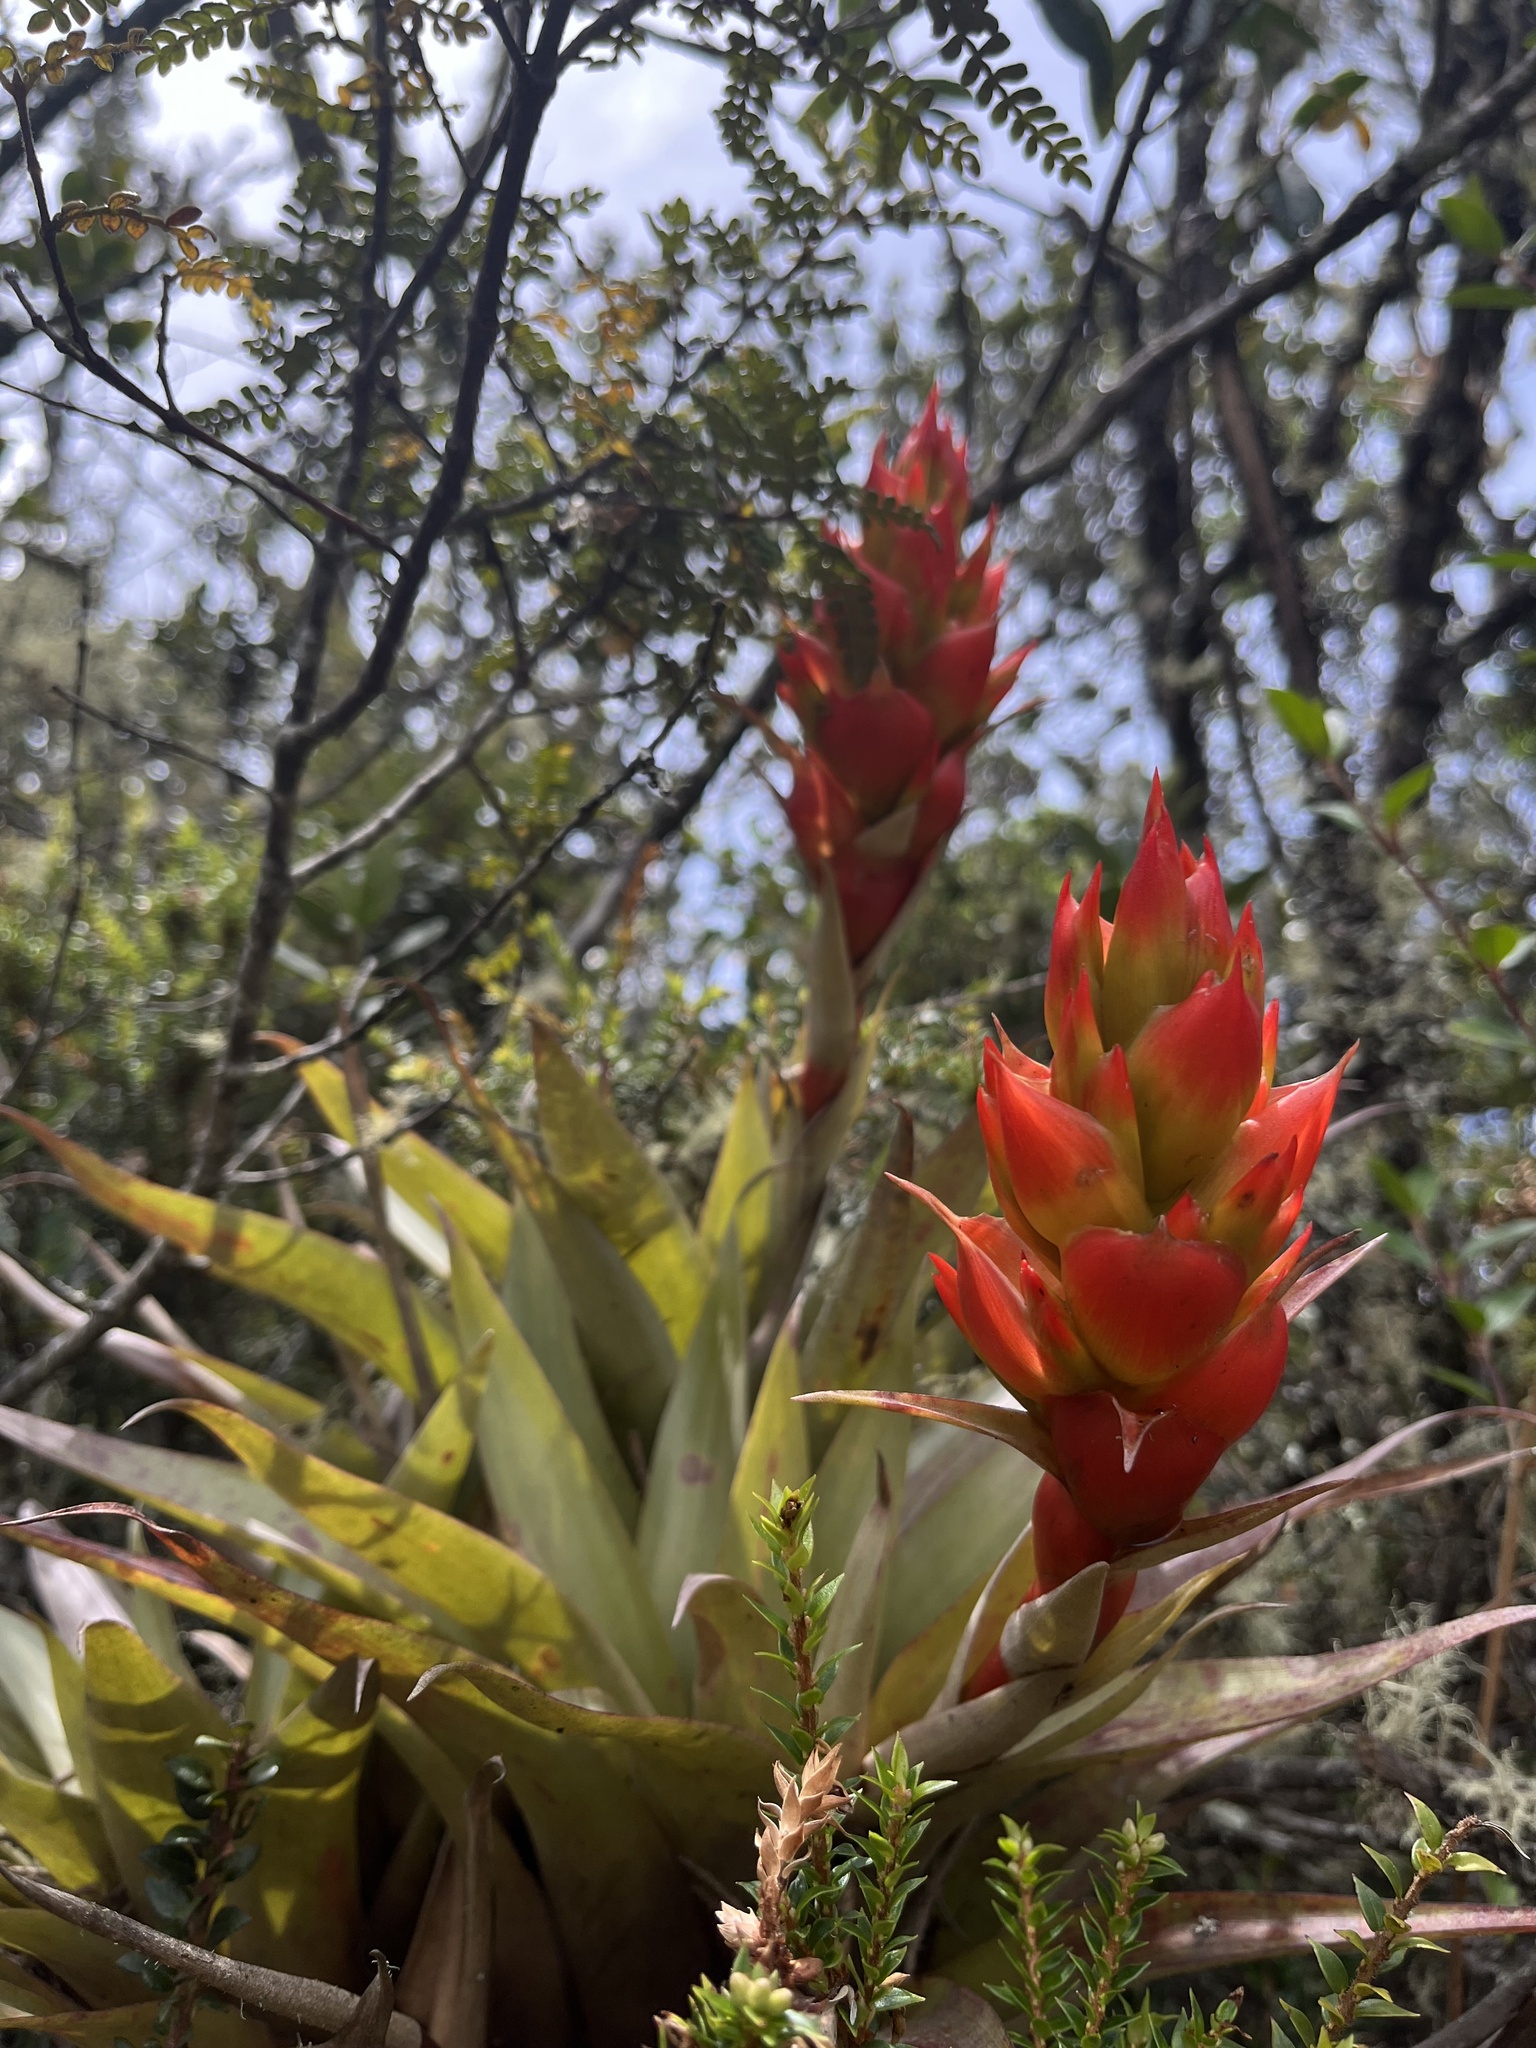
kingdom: Plantae
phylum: Tracheophyta
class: Liliopsida
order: Poales
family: Bromeliaceae
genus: Tillandsia
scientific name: Tillandsia turneri
